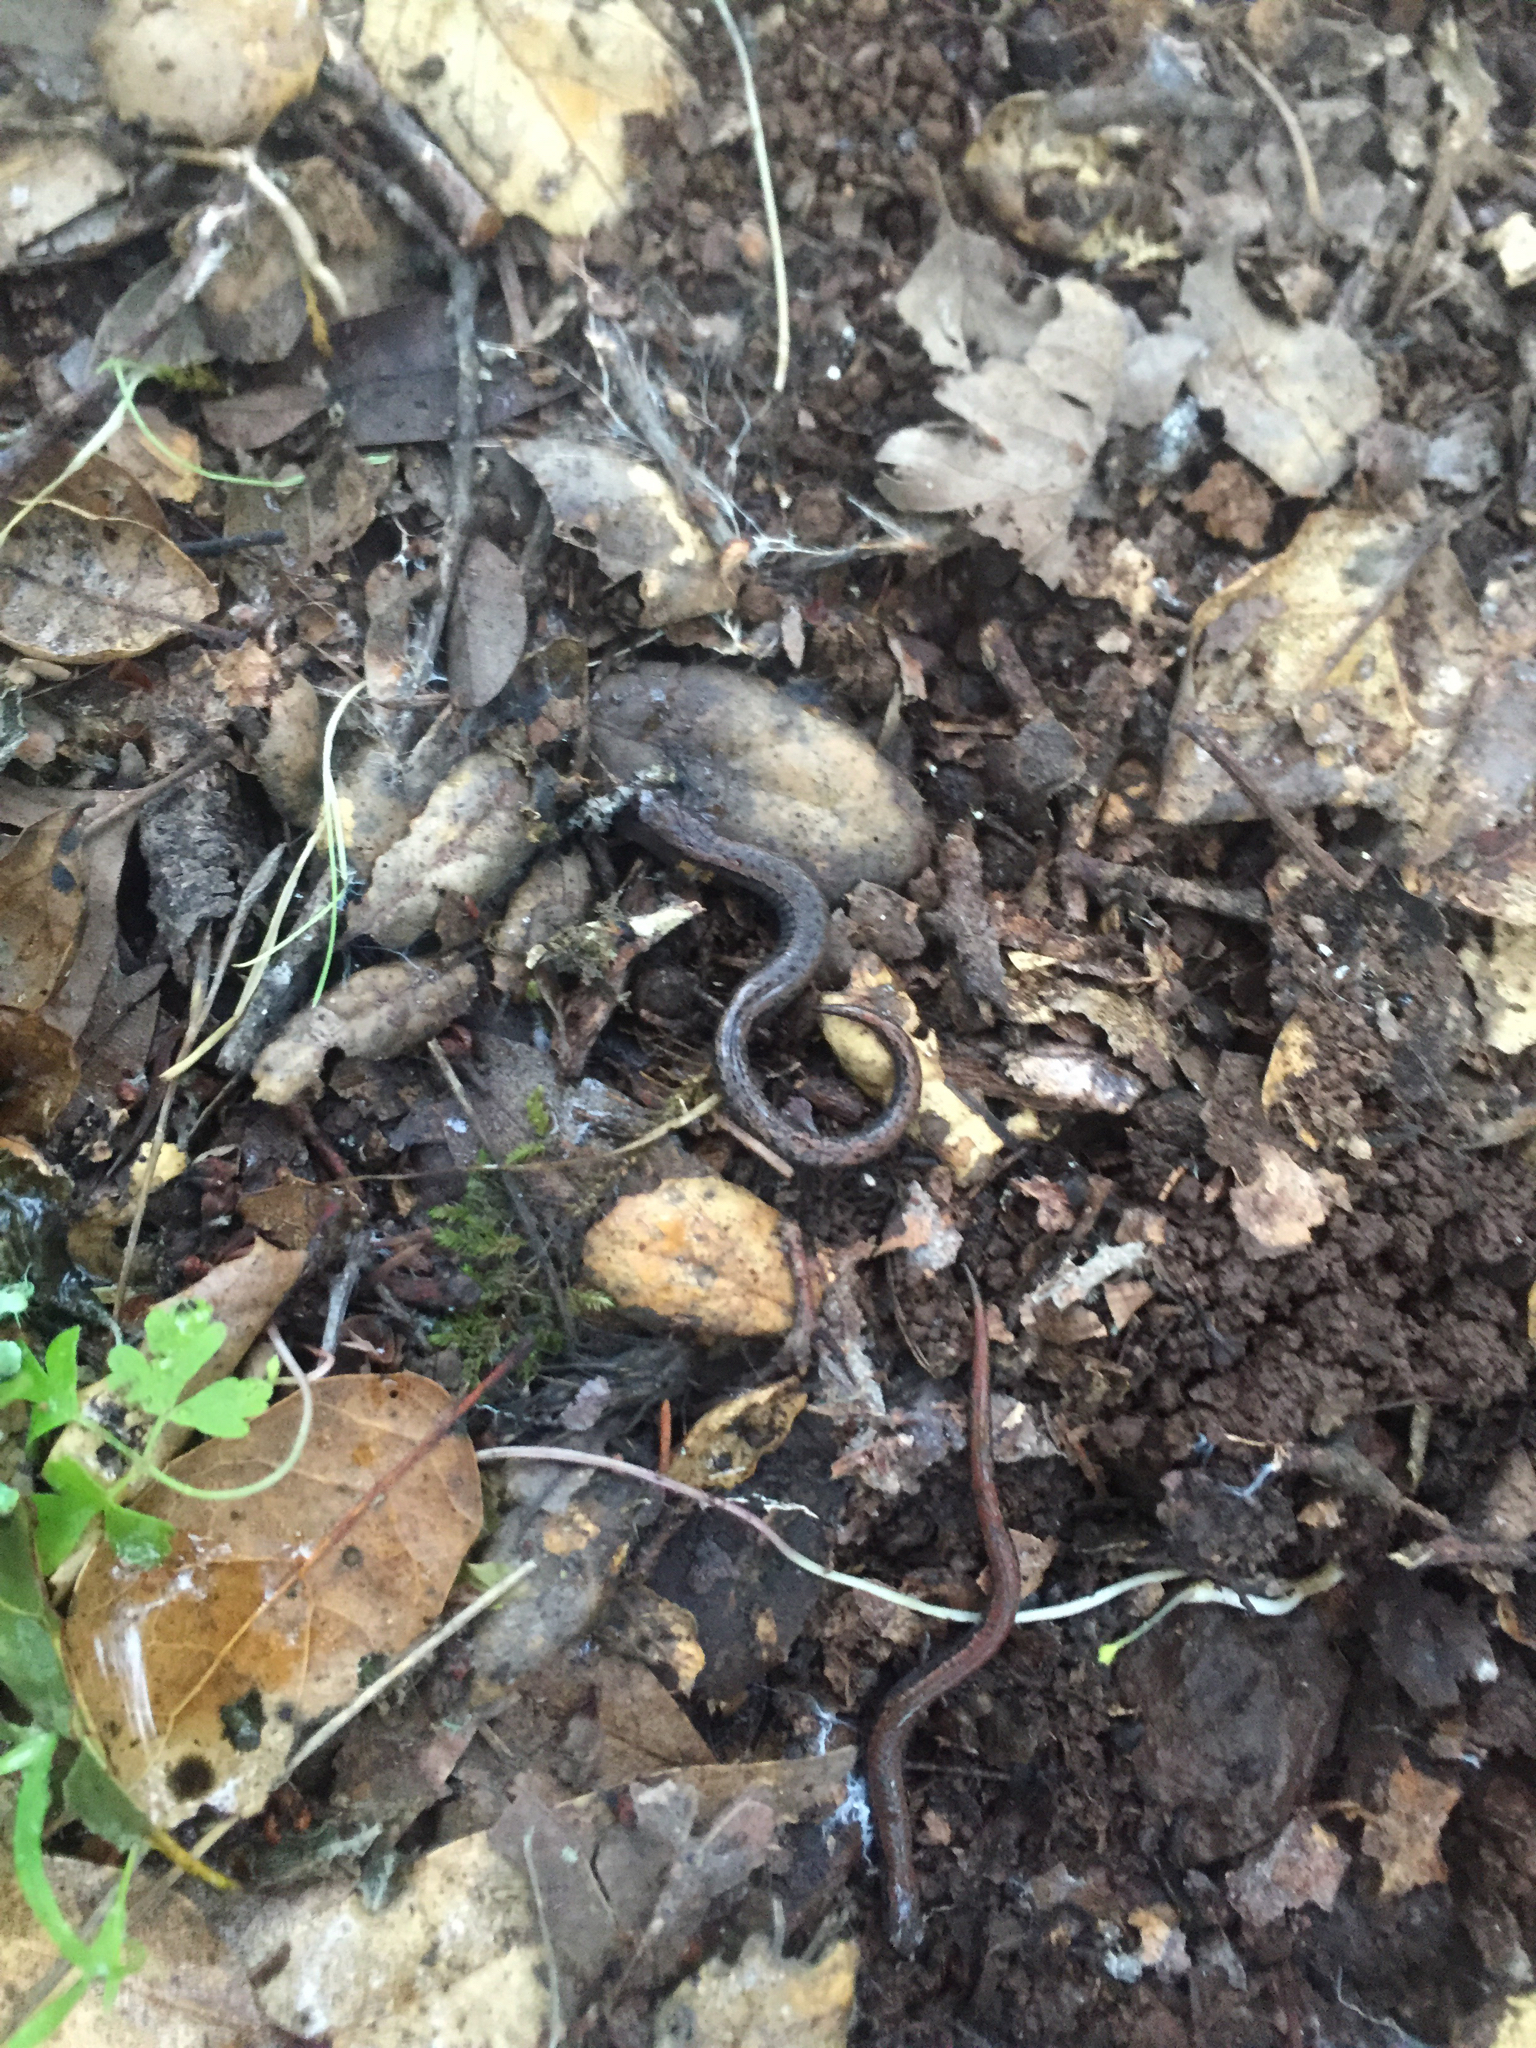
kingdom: Animalia
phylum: Chordata
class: Amphibia
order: Caudata
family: Plethodontidae
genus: Batrachoseps
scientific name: Batrachoseps attenuatus
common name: California slender salamander
